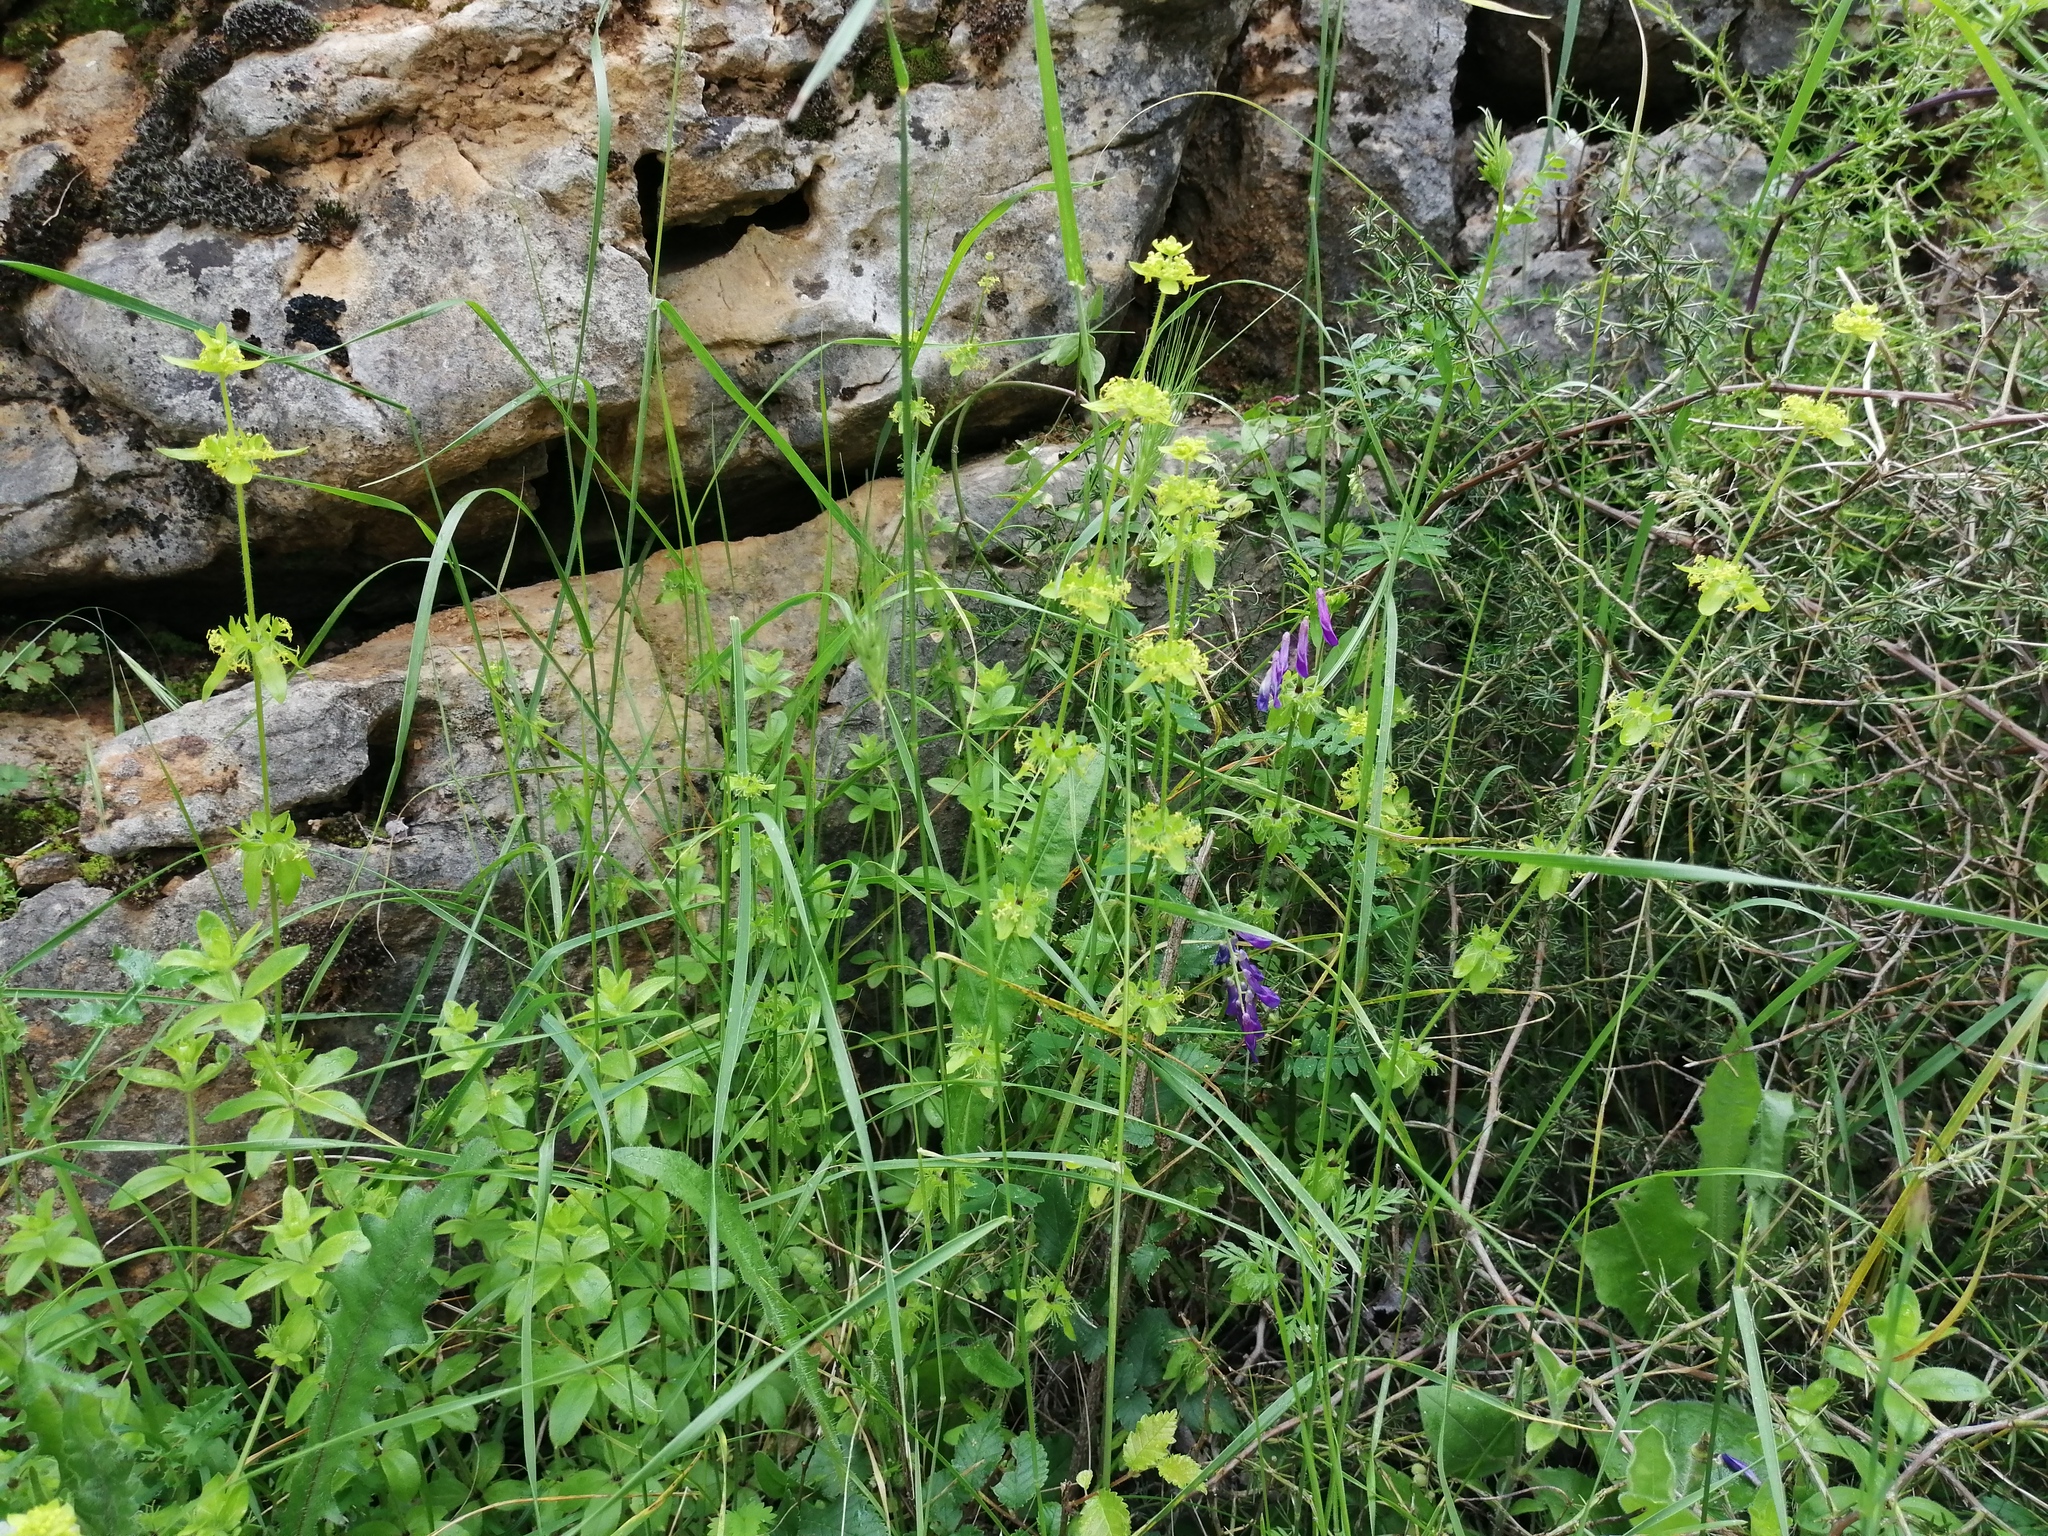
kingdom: Plantae
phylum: Tracheophyta
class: Magnoliopsida
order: Gentianales
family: Rubiaceae
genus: Cruciata
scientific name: Cruciata laevipes
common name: Crosswort
